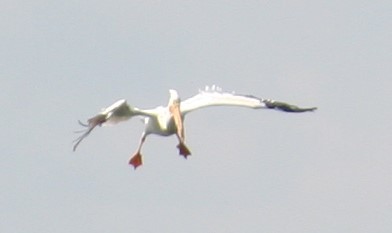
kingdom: Animalia
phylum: Chordata
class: Aves
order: Pelecaniformes
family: Pelecanidae
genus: Pelecanus
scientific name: Pelecanus erythrorhynchos
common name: American white pelican
